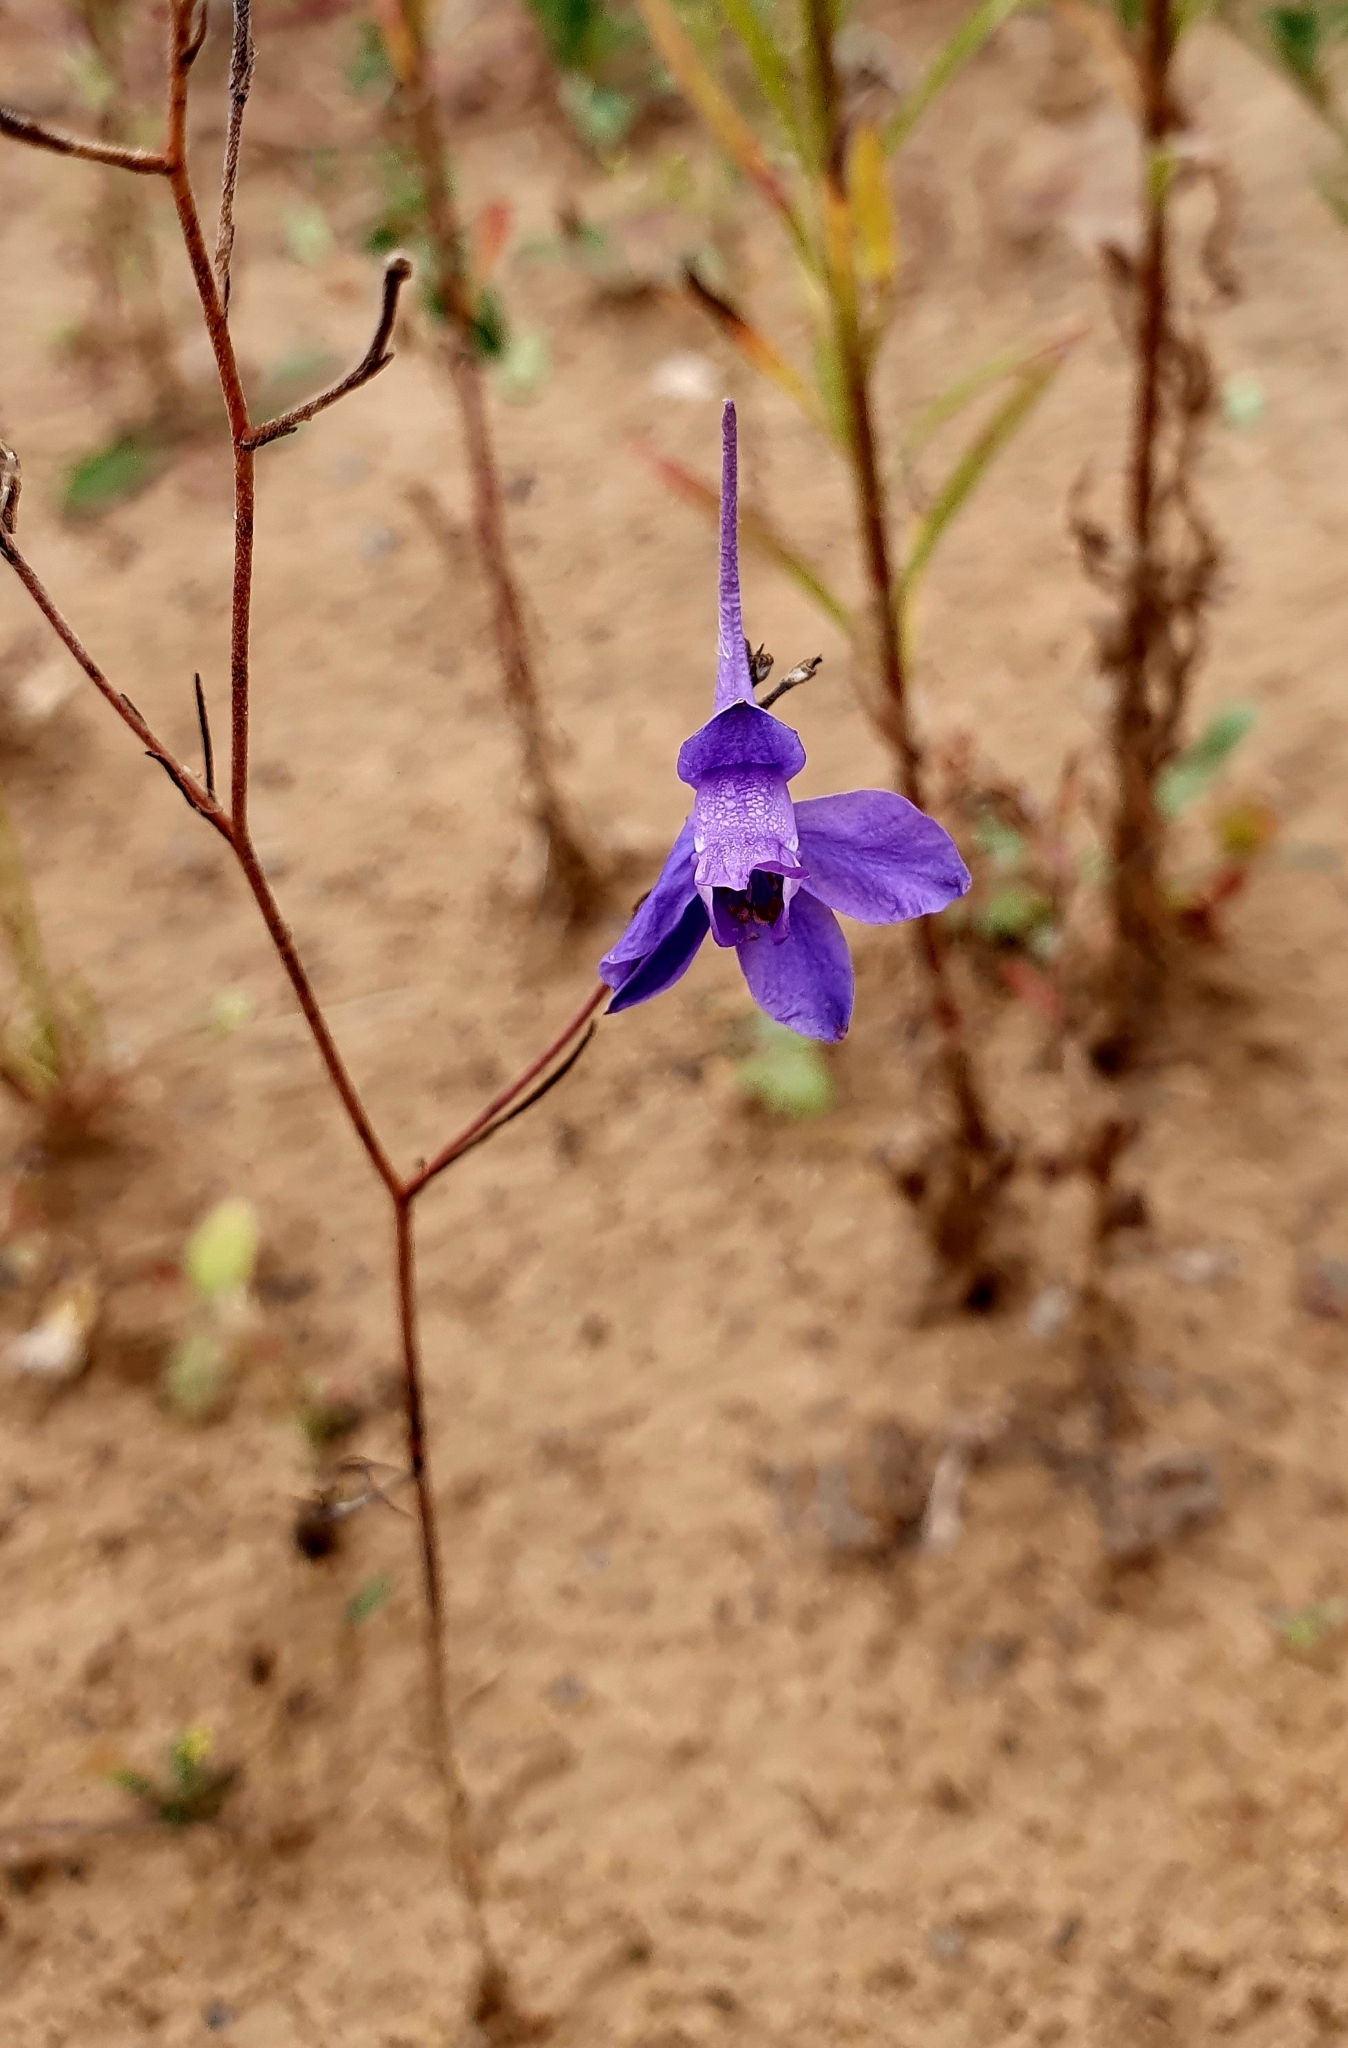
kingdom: Plantae
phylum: Tracheophyta
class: Magnoliopsida
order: Ranunculales
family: Ranunculaceae
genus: Delphinium
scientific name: Delphinium consolida
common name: Branching larkspur
